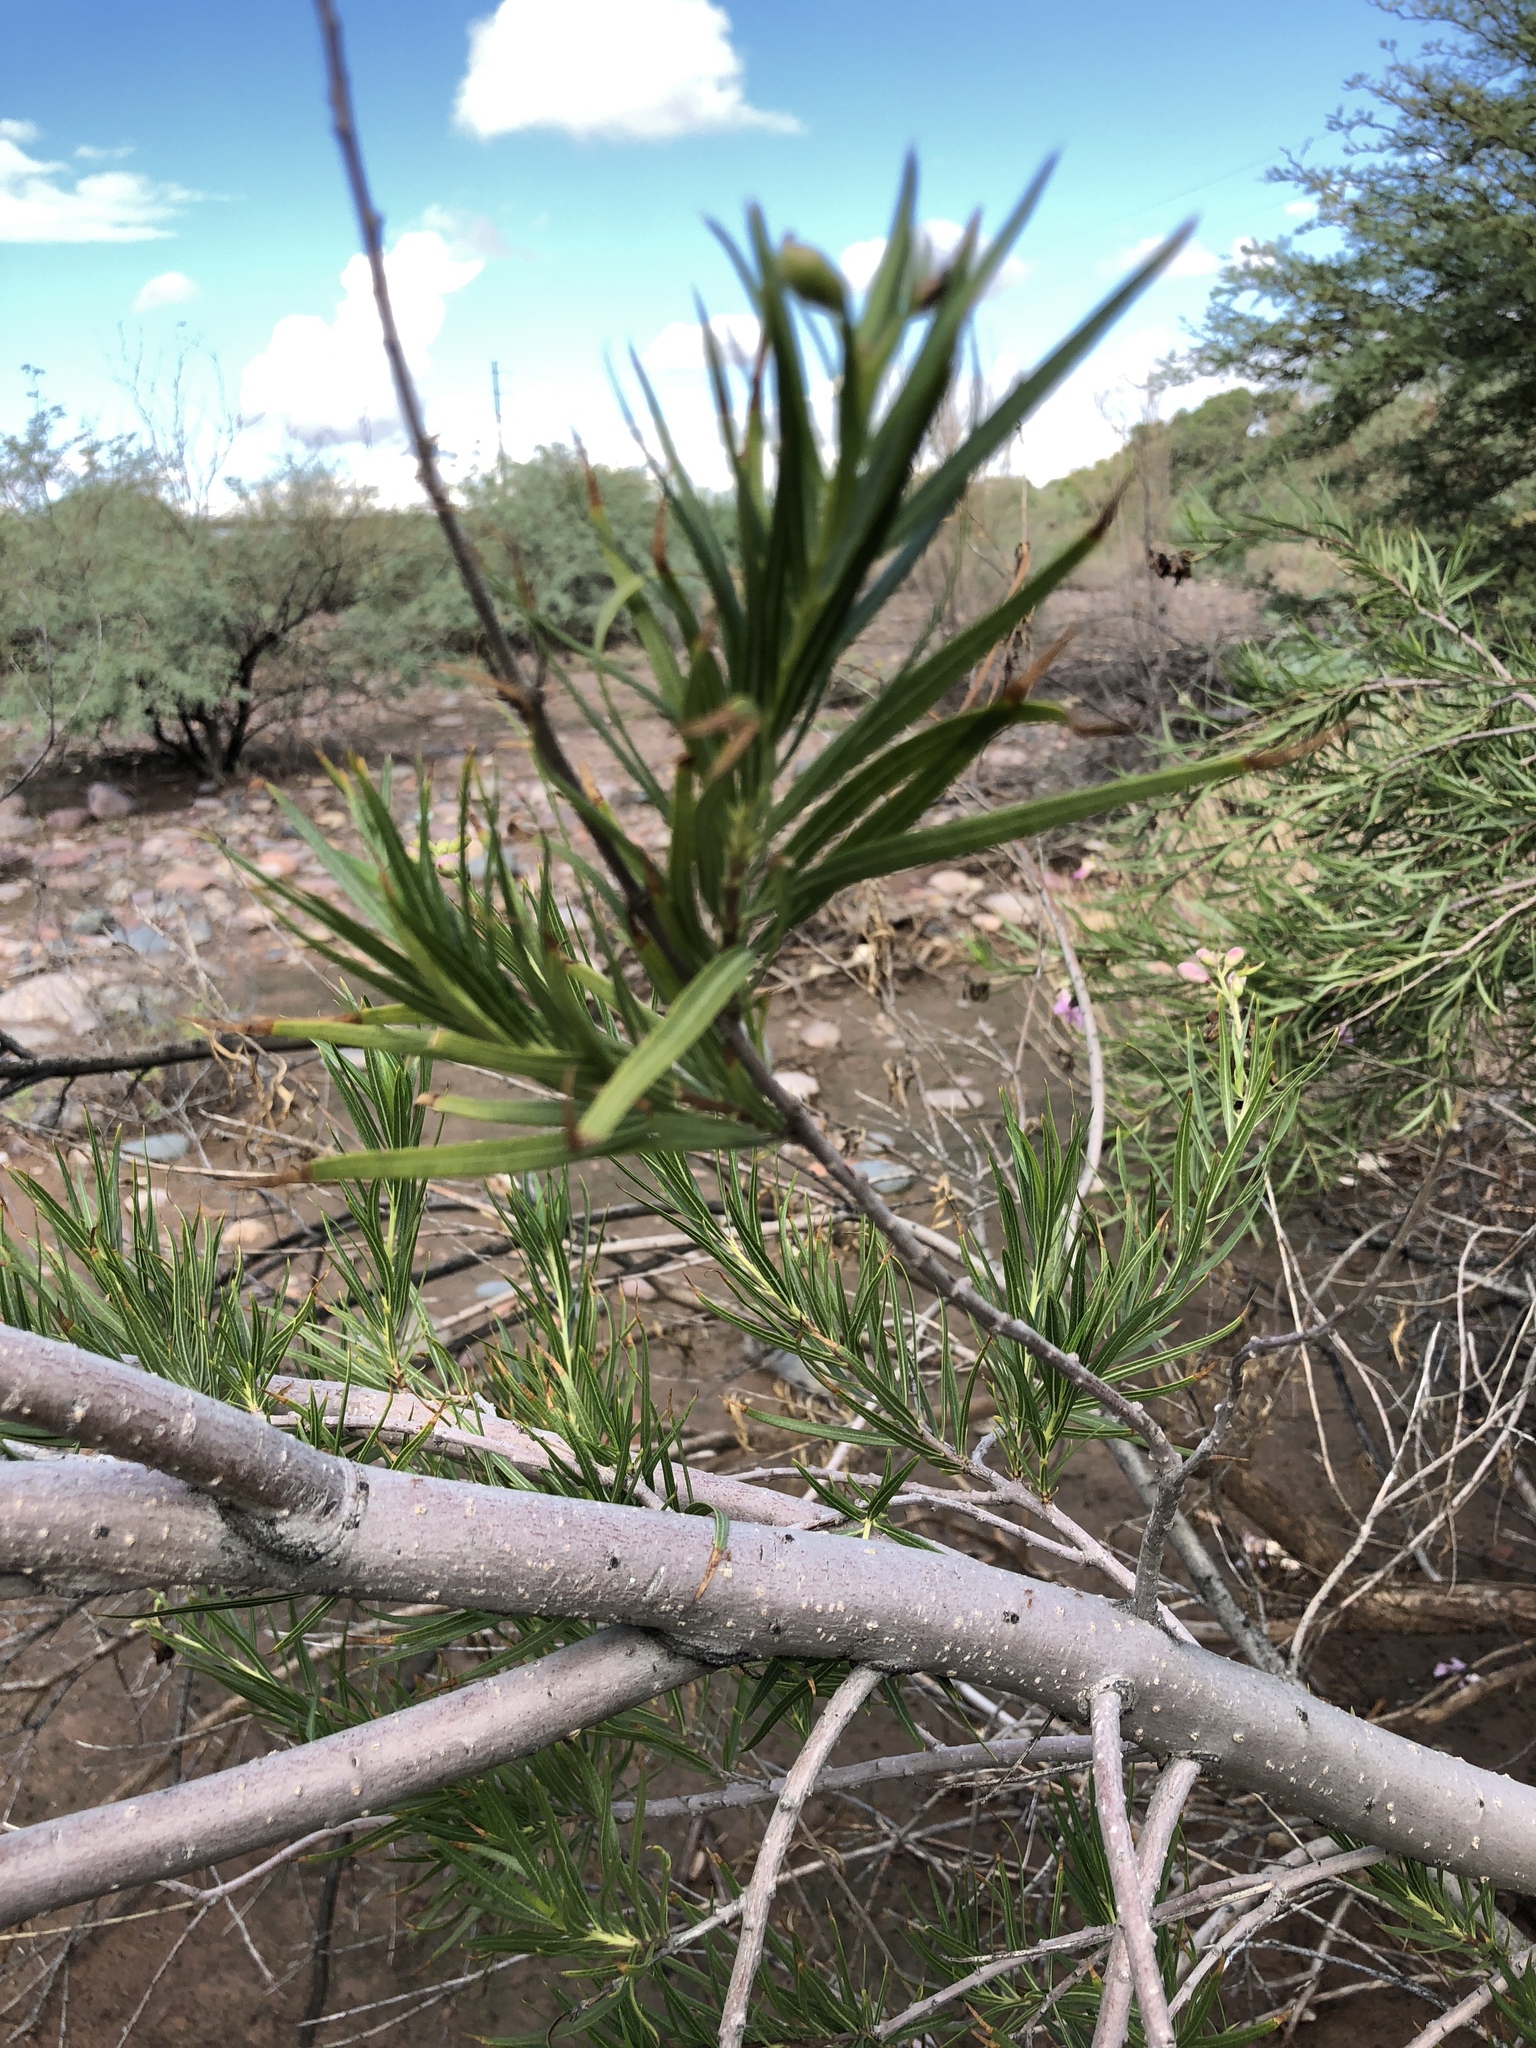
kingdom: Plantae
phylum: Tracheophyta
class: Magnoliopsida
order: Lamiales
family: Bignoniaceae
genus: Chilopsis
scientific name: Chilopsis linearis
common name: Desert-willow
